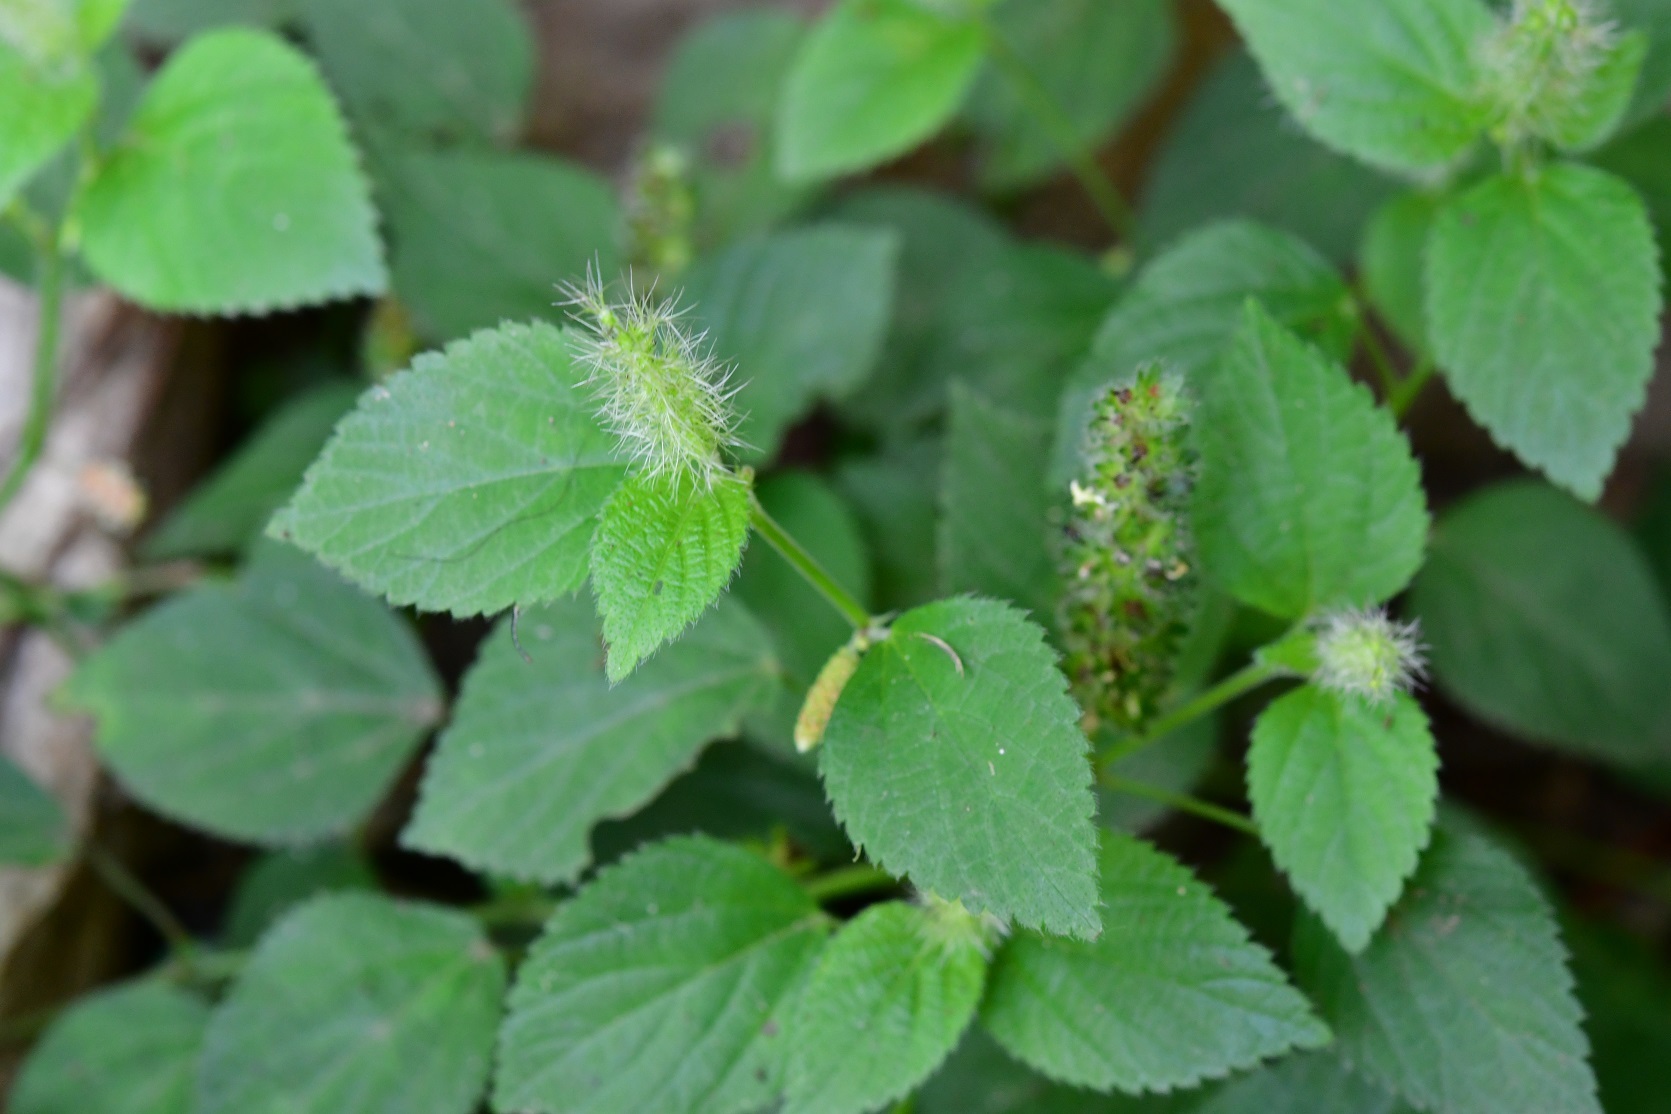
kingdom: Plantae
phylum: Tracheophyta
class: Magnoliopsida
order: Malpighiales
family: Euphorbiaceae
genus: Acalypha
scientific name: Acalypha phleoides
